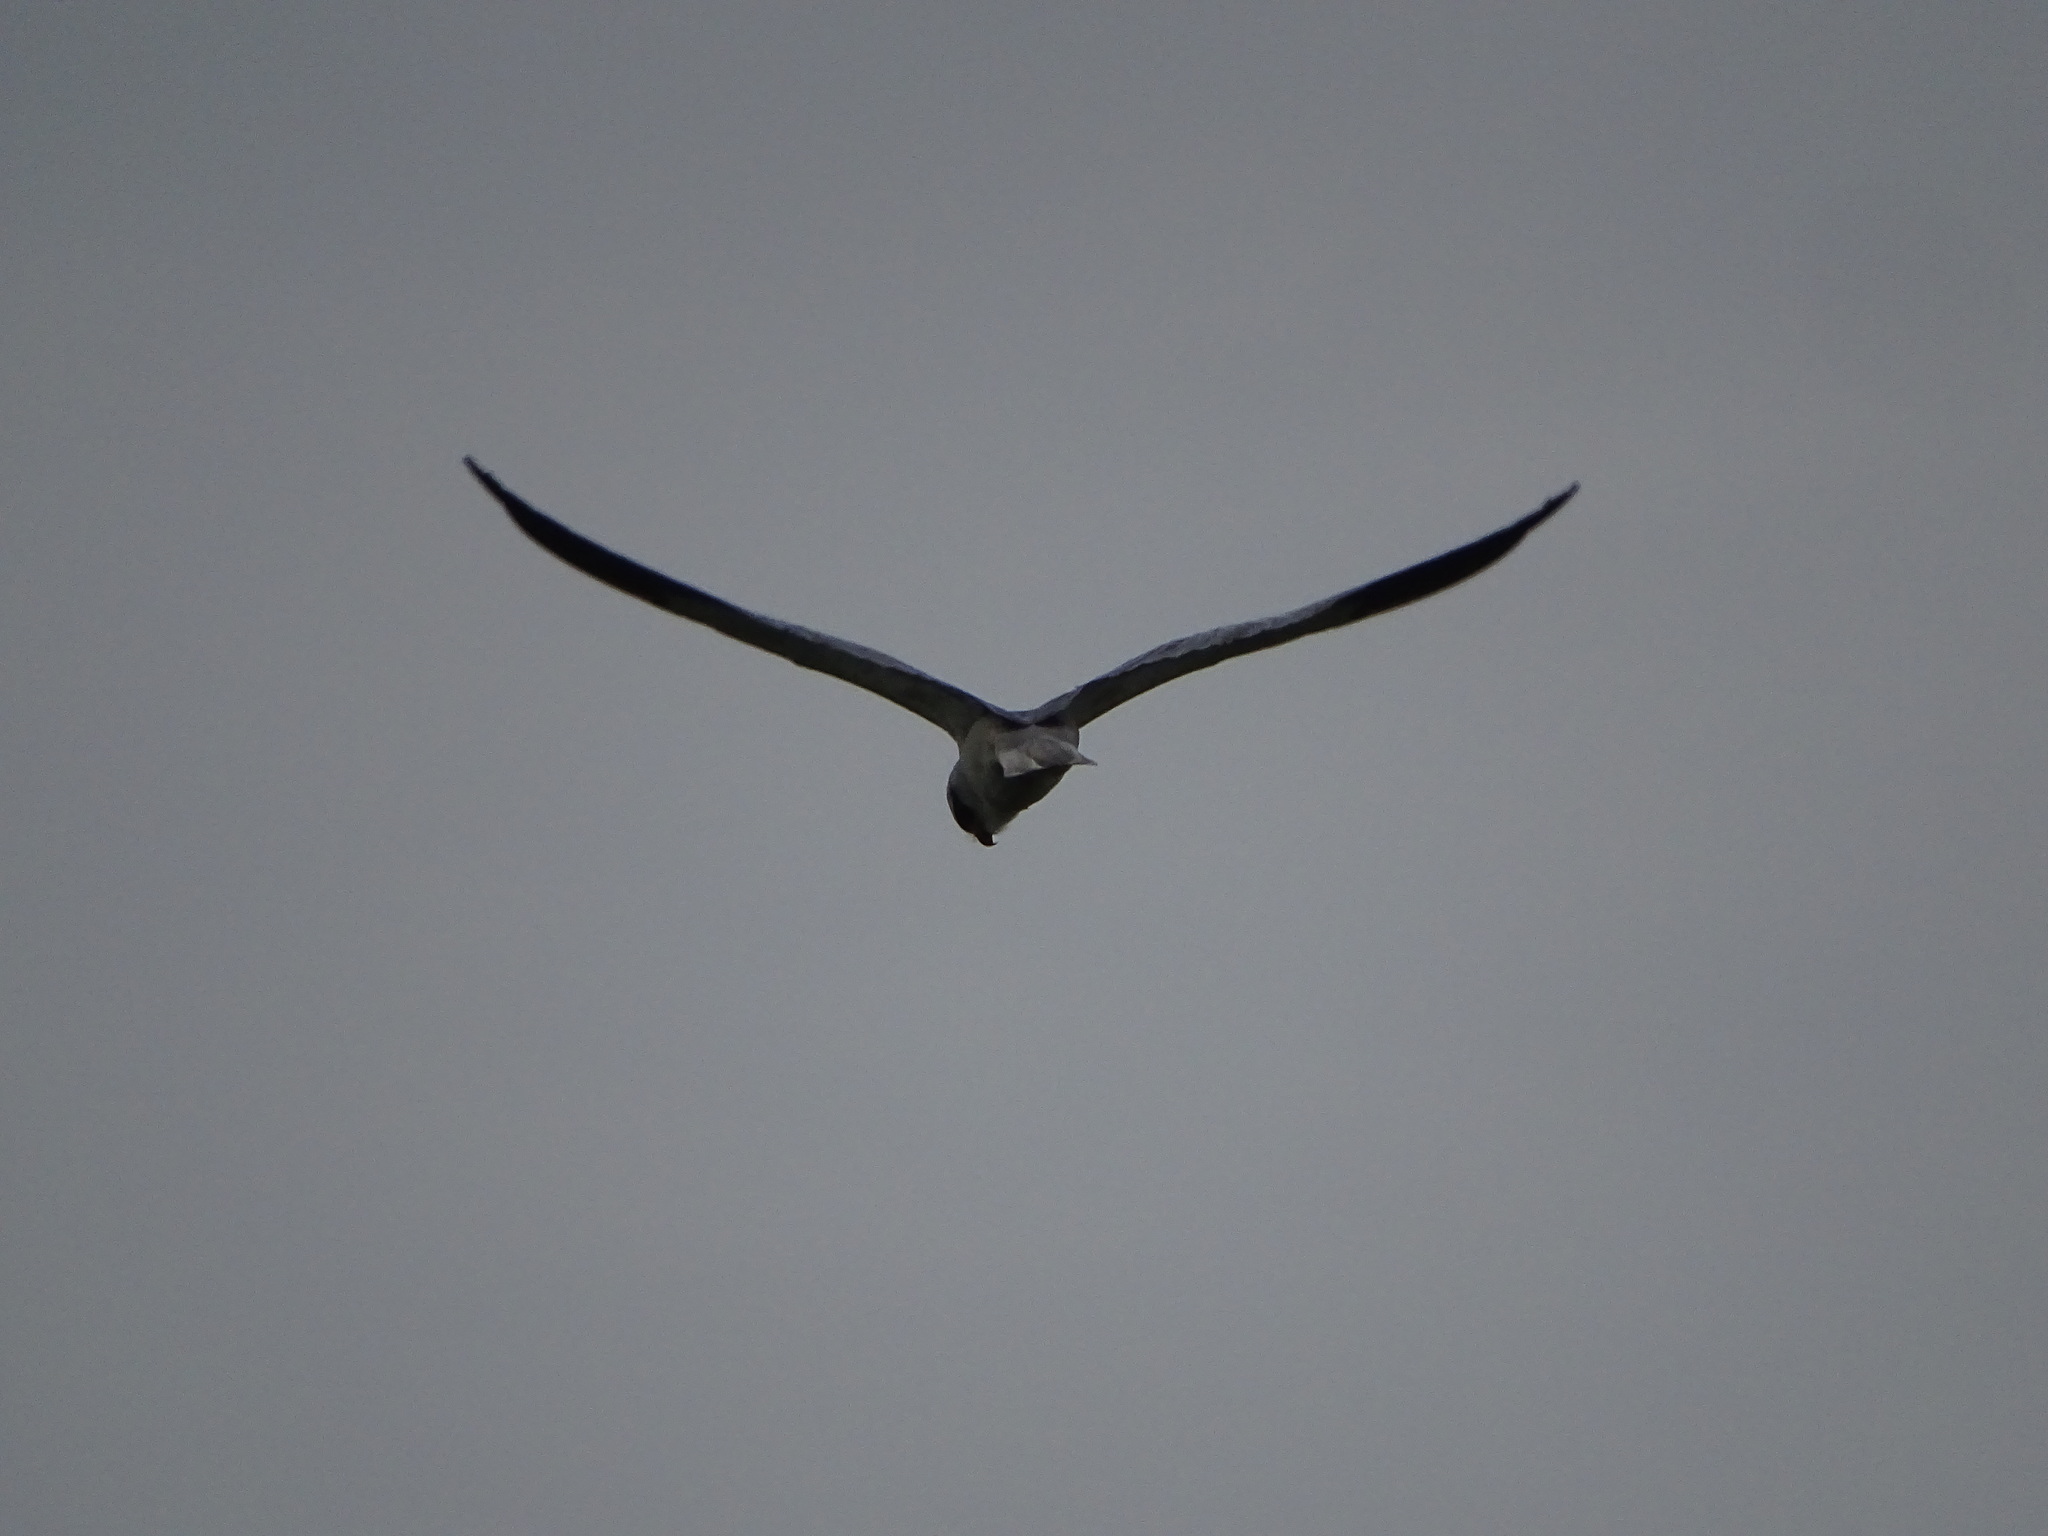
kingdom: Animalia
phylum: Chordata
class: Aves
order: Accipitriformes
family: Accipitridae
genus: Elanus
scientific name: Elanus caeruleus
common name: Black-winged kite
